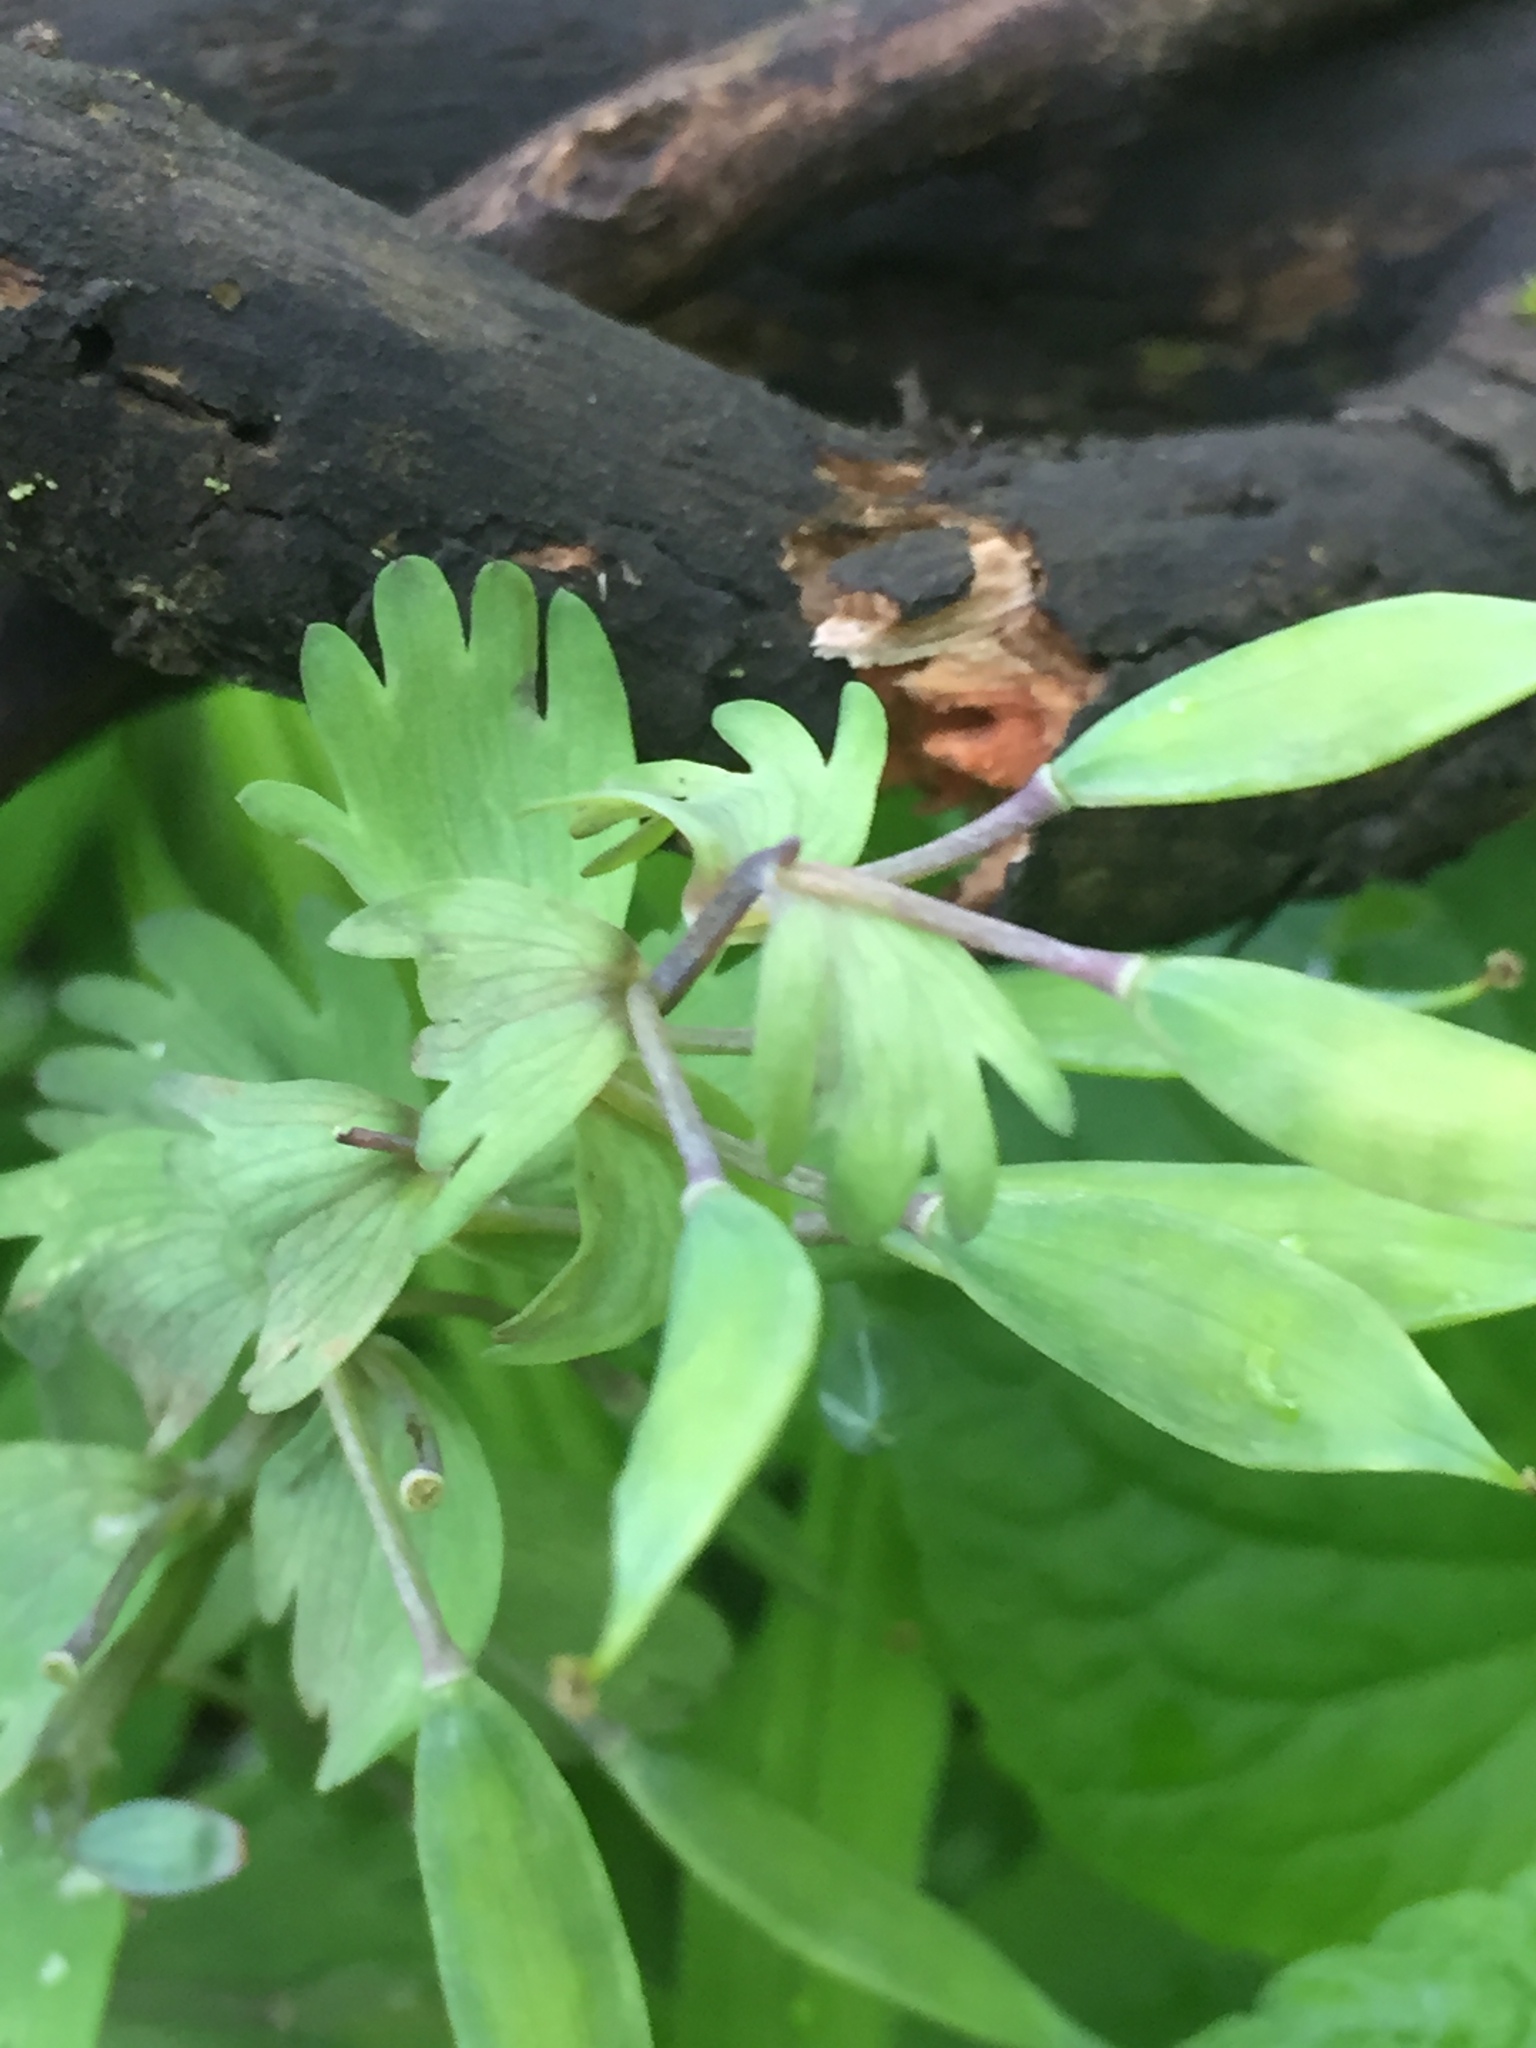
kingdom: Plantae
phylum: Tracheophyta
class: Magnoliopsida
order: Ranunculales
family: Papaveraceae
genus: Corydalis
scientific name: Corydalis solida
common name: Bird-in-a-bush
